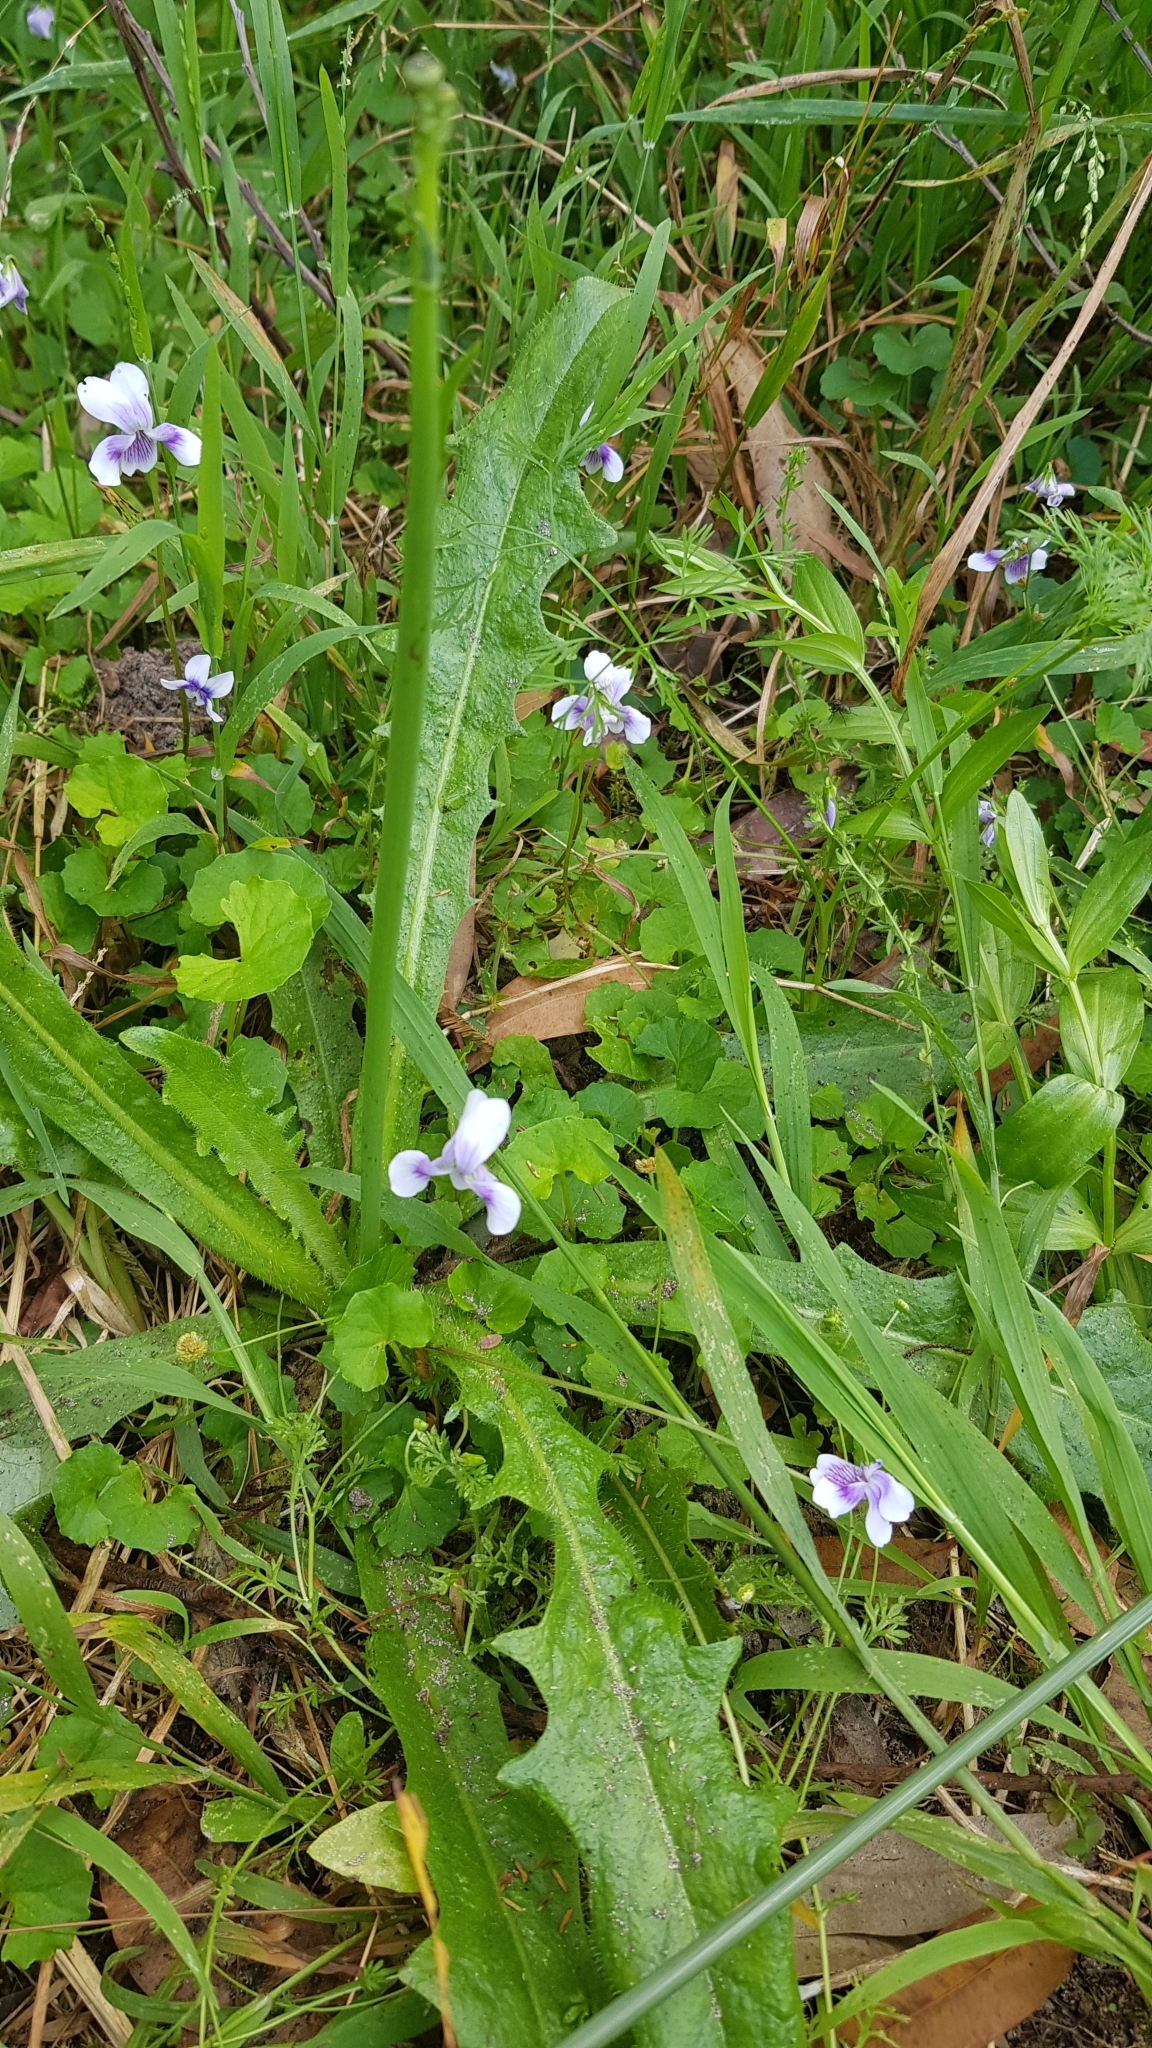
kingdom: Plantae
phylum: Tracheophyta
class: Magnoliopsida
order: Malpighiales
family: Violaceae
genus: Viola
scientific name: Viola banksii
